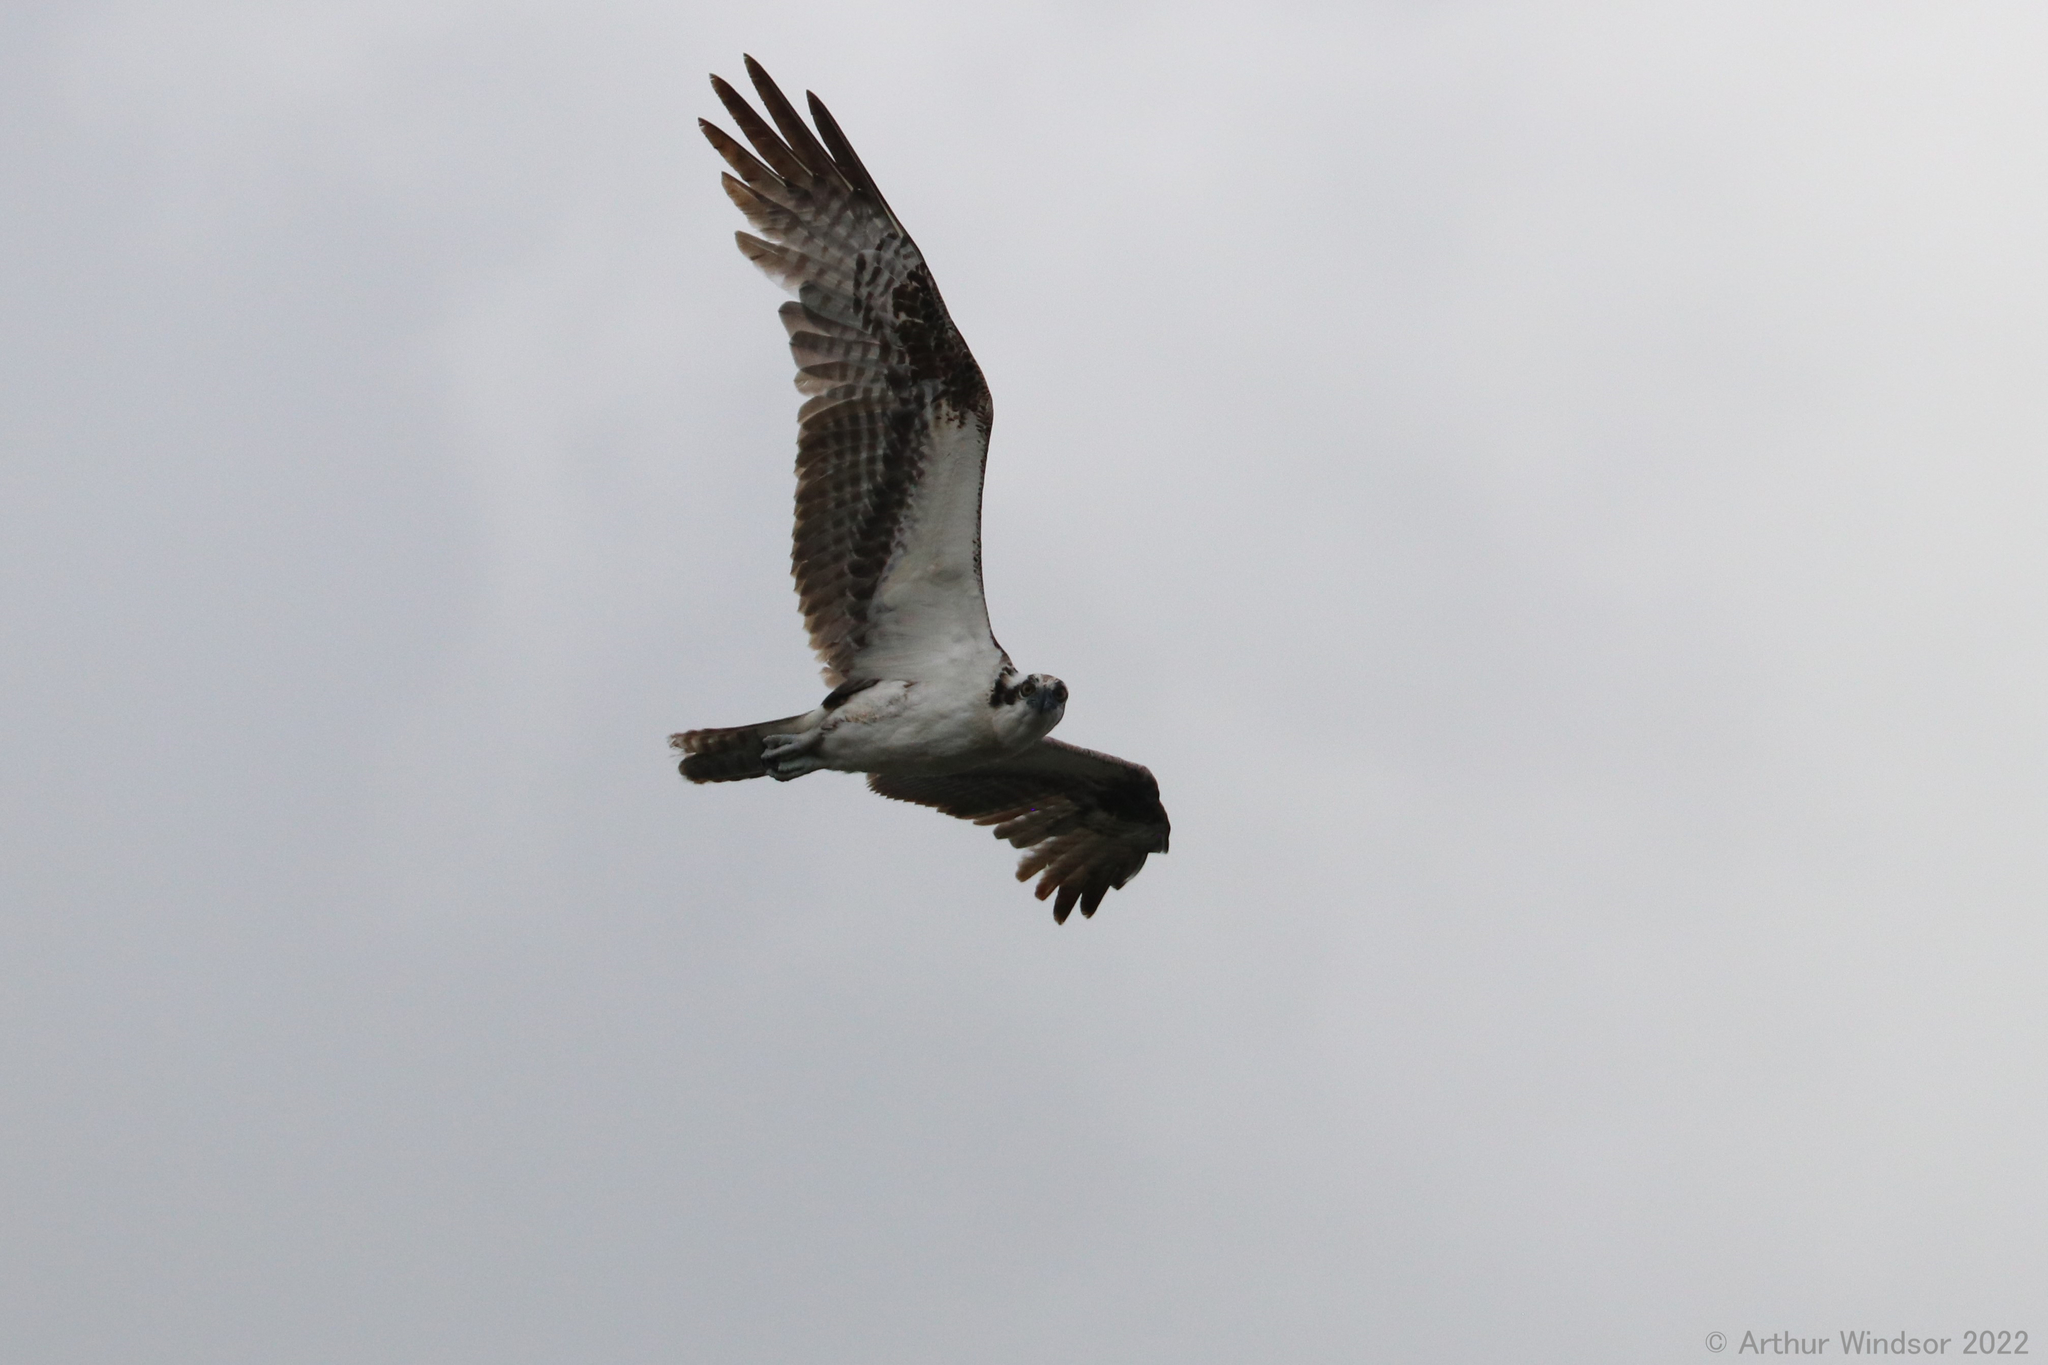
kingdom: Animalia
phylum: Chordata
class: Aves
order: Accipitriformes
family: Pandionidae
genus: Pandion
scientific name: Pandion haliaetus
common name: Osprey
